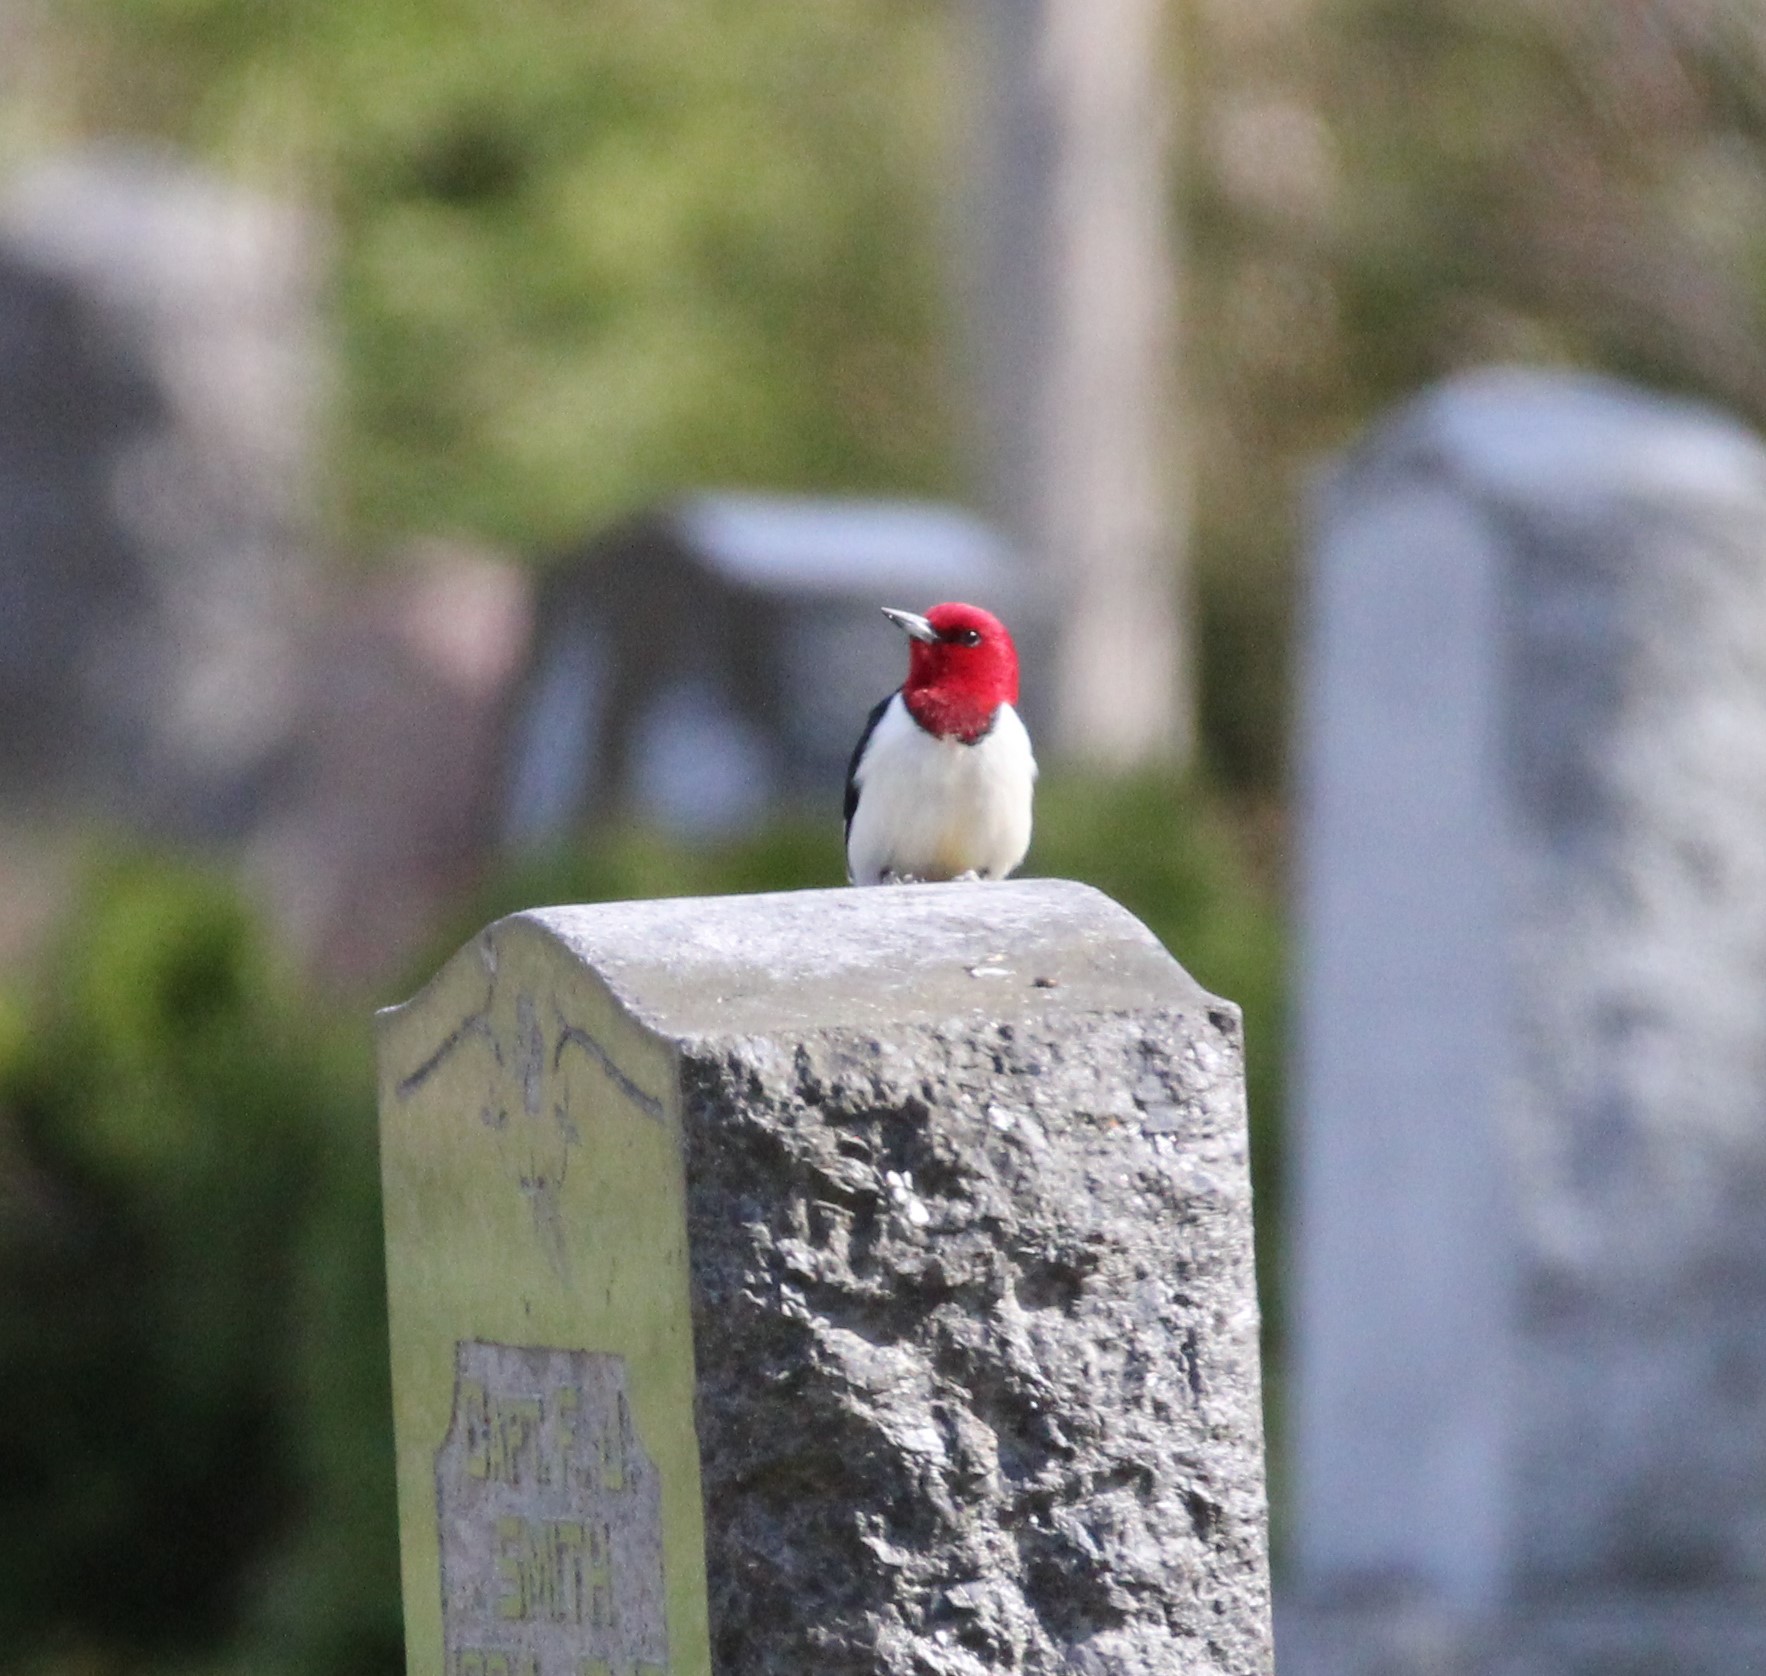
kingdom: Animalia
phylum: Chordata
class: Aves
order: Piciformes
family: Picidae
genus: Melanerpes
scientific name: Melanerpes erythrocephalus
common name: Red-headed woodpecker
